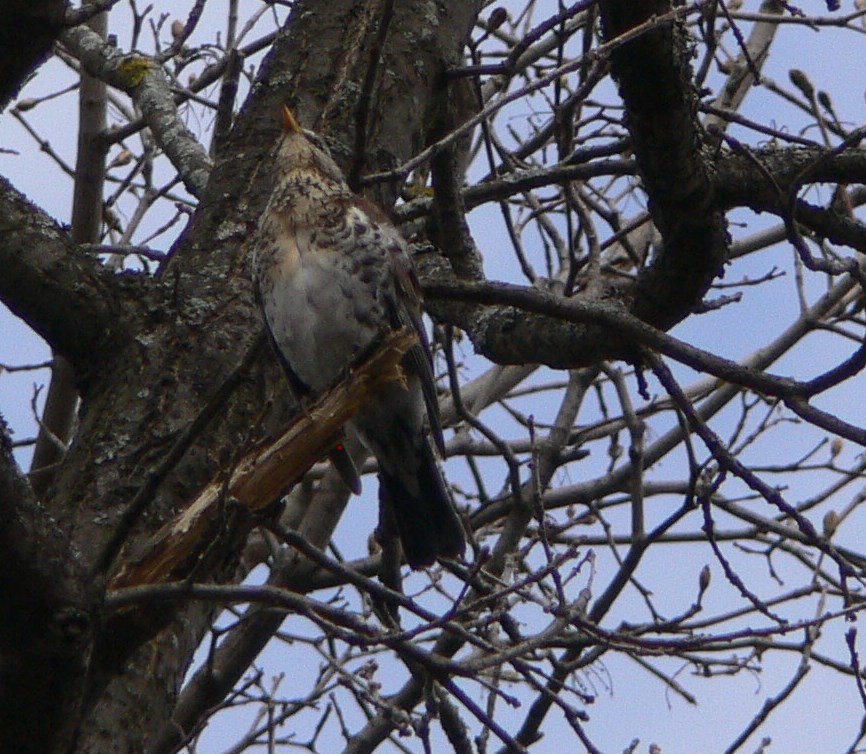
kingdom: Animalia
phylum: Chordata
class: Aves
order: Passeriformes
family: Turdidae
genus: Turdus
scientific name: Turdus pilaris
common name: Fieldfare
